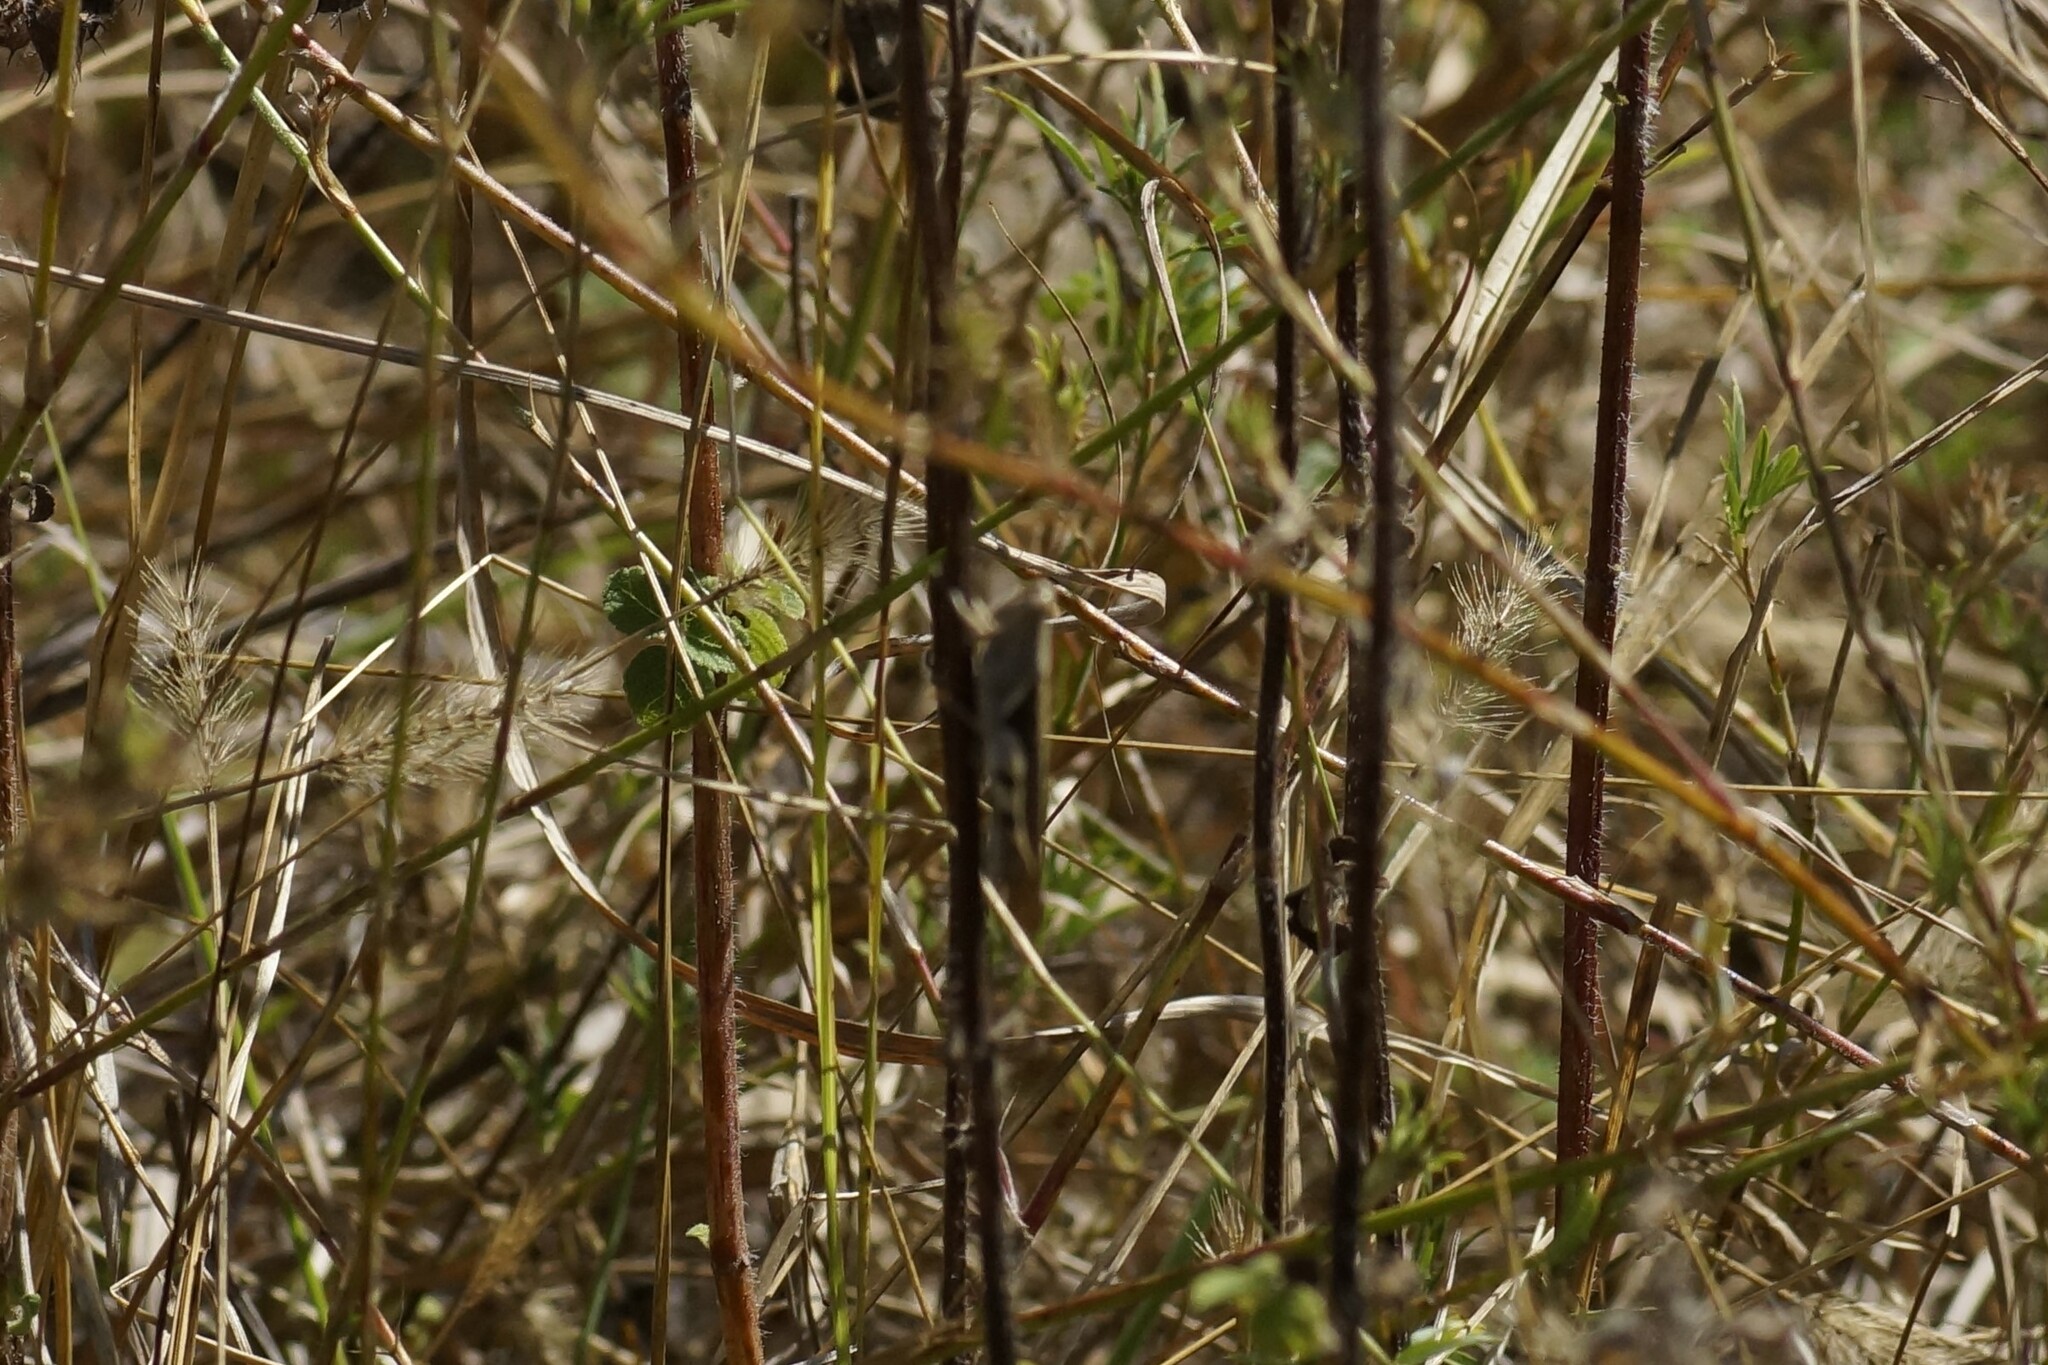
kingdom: Animalia
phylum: Arthropoda
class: Insecta
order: Orthoptera
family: Acrididae
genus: Stenocatantops
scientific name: Stenocatantops angustifrons
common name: Common tropical sharptail
